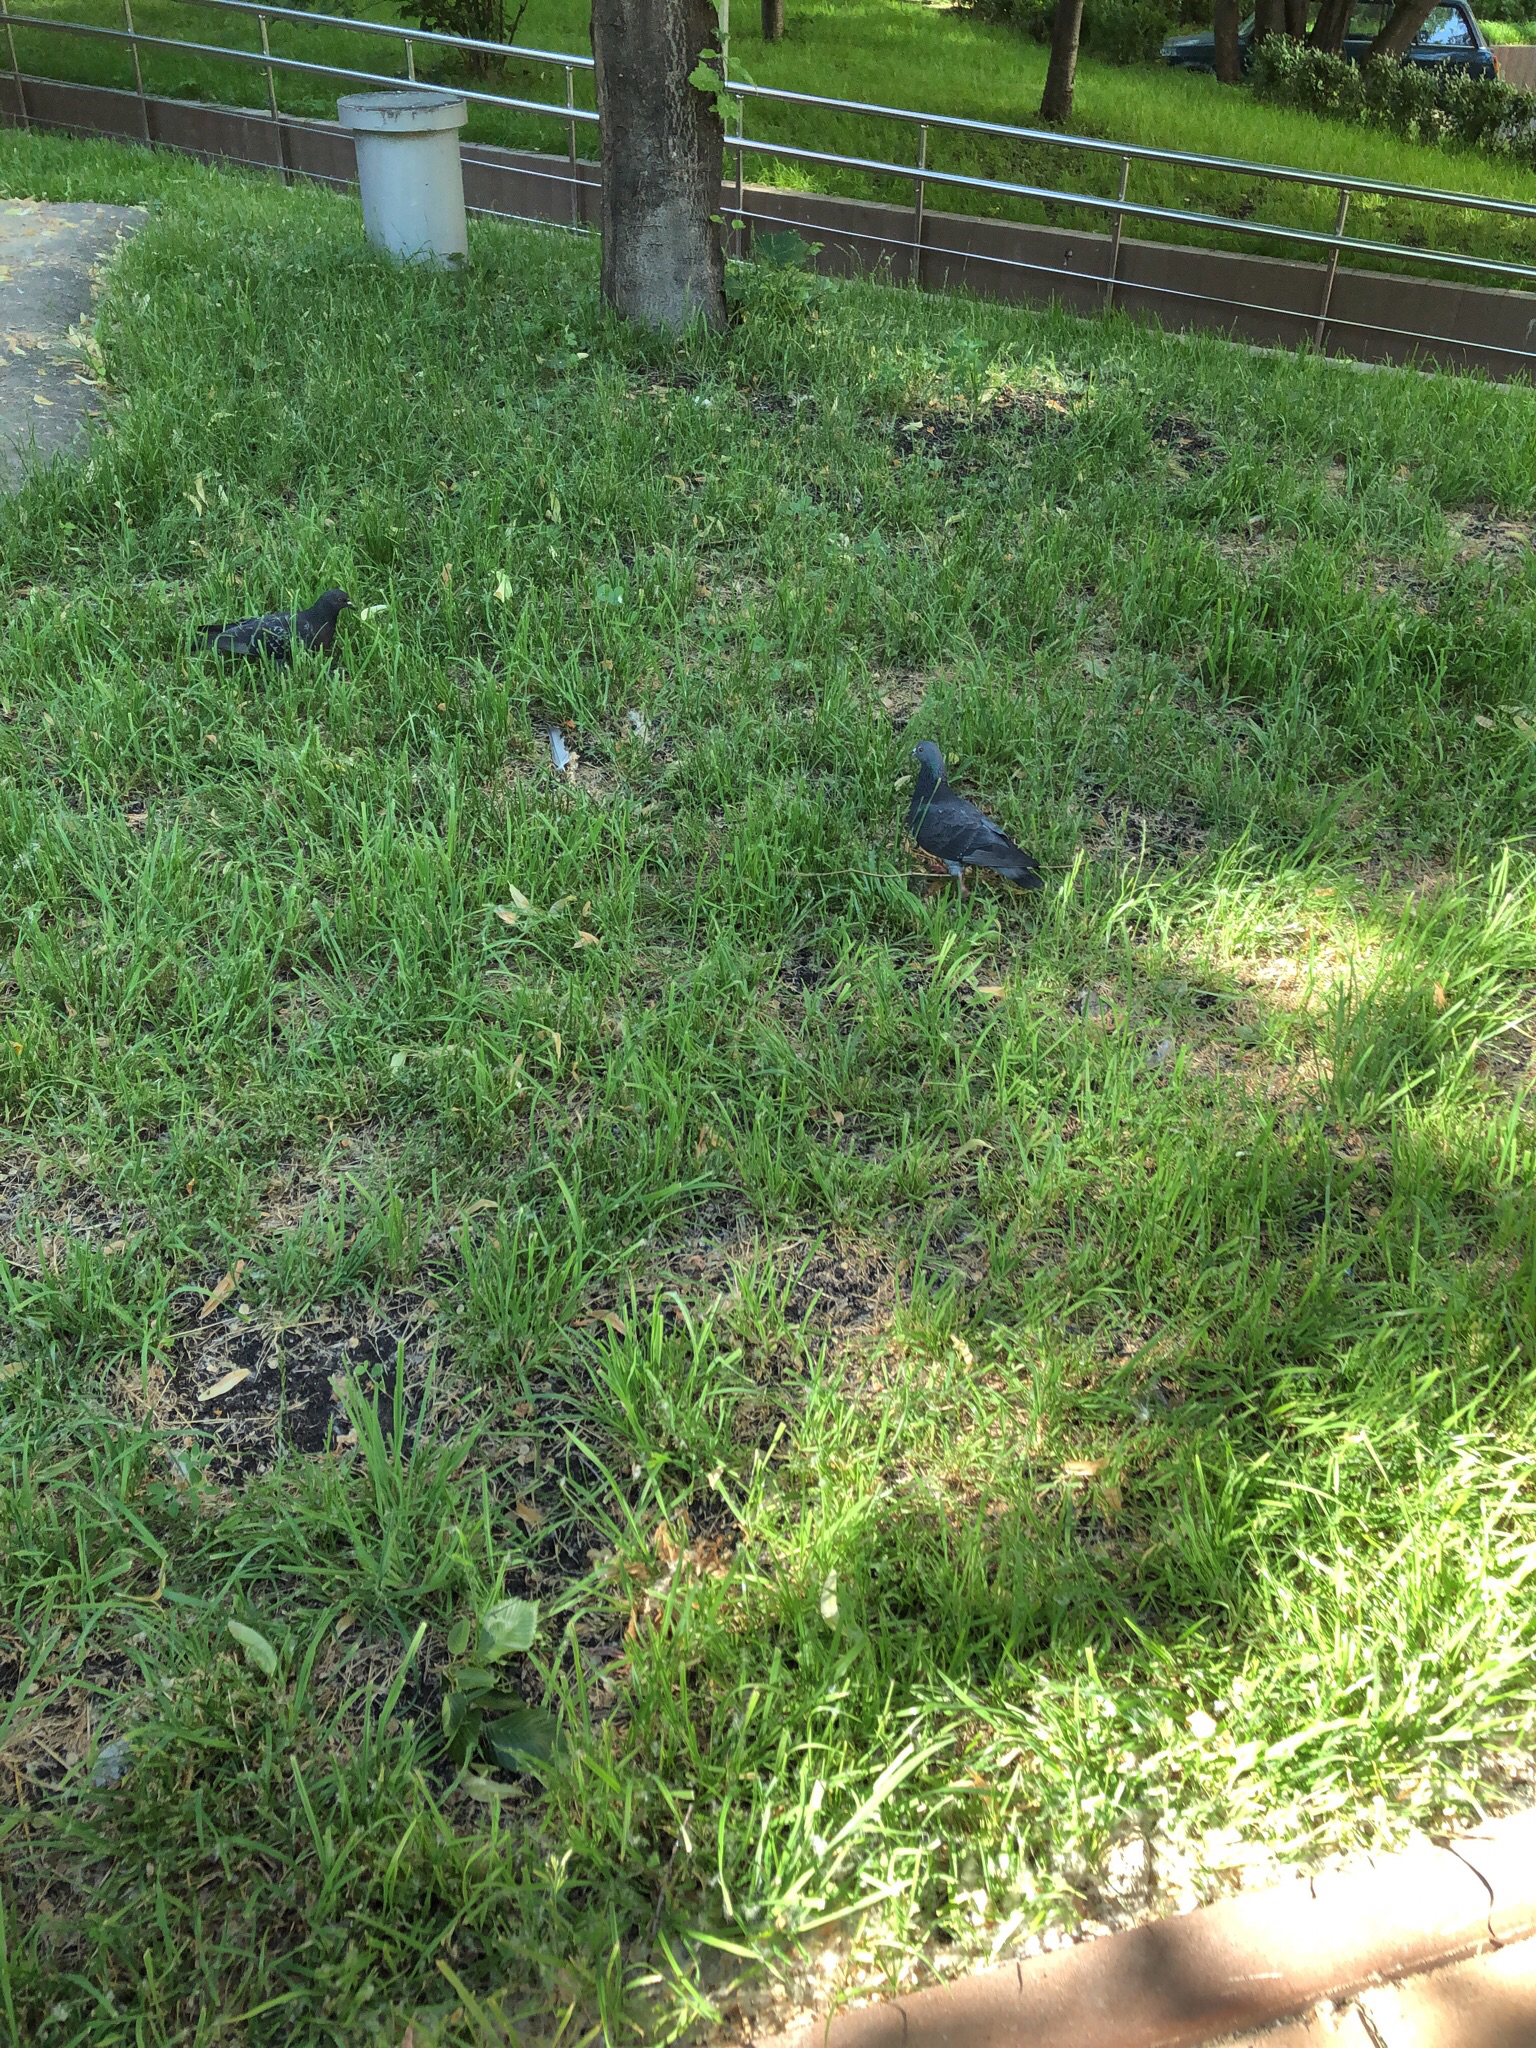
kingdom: Animalia
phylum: Chordata
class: Aves
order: Columbiformes
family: Columbidae
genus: Columba
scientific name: Columba livia
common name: Rock pigeon
